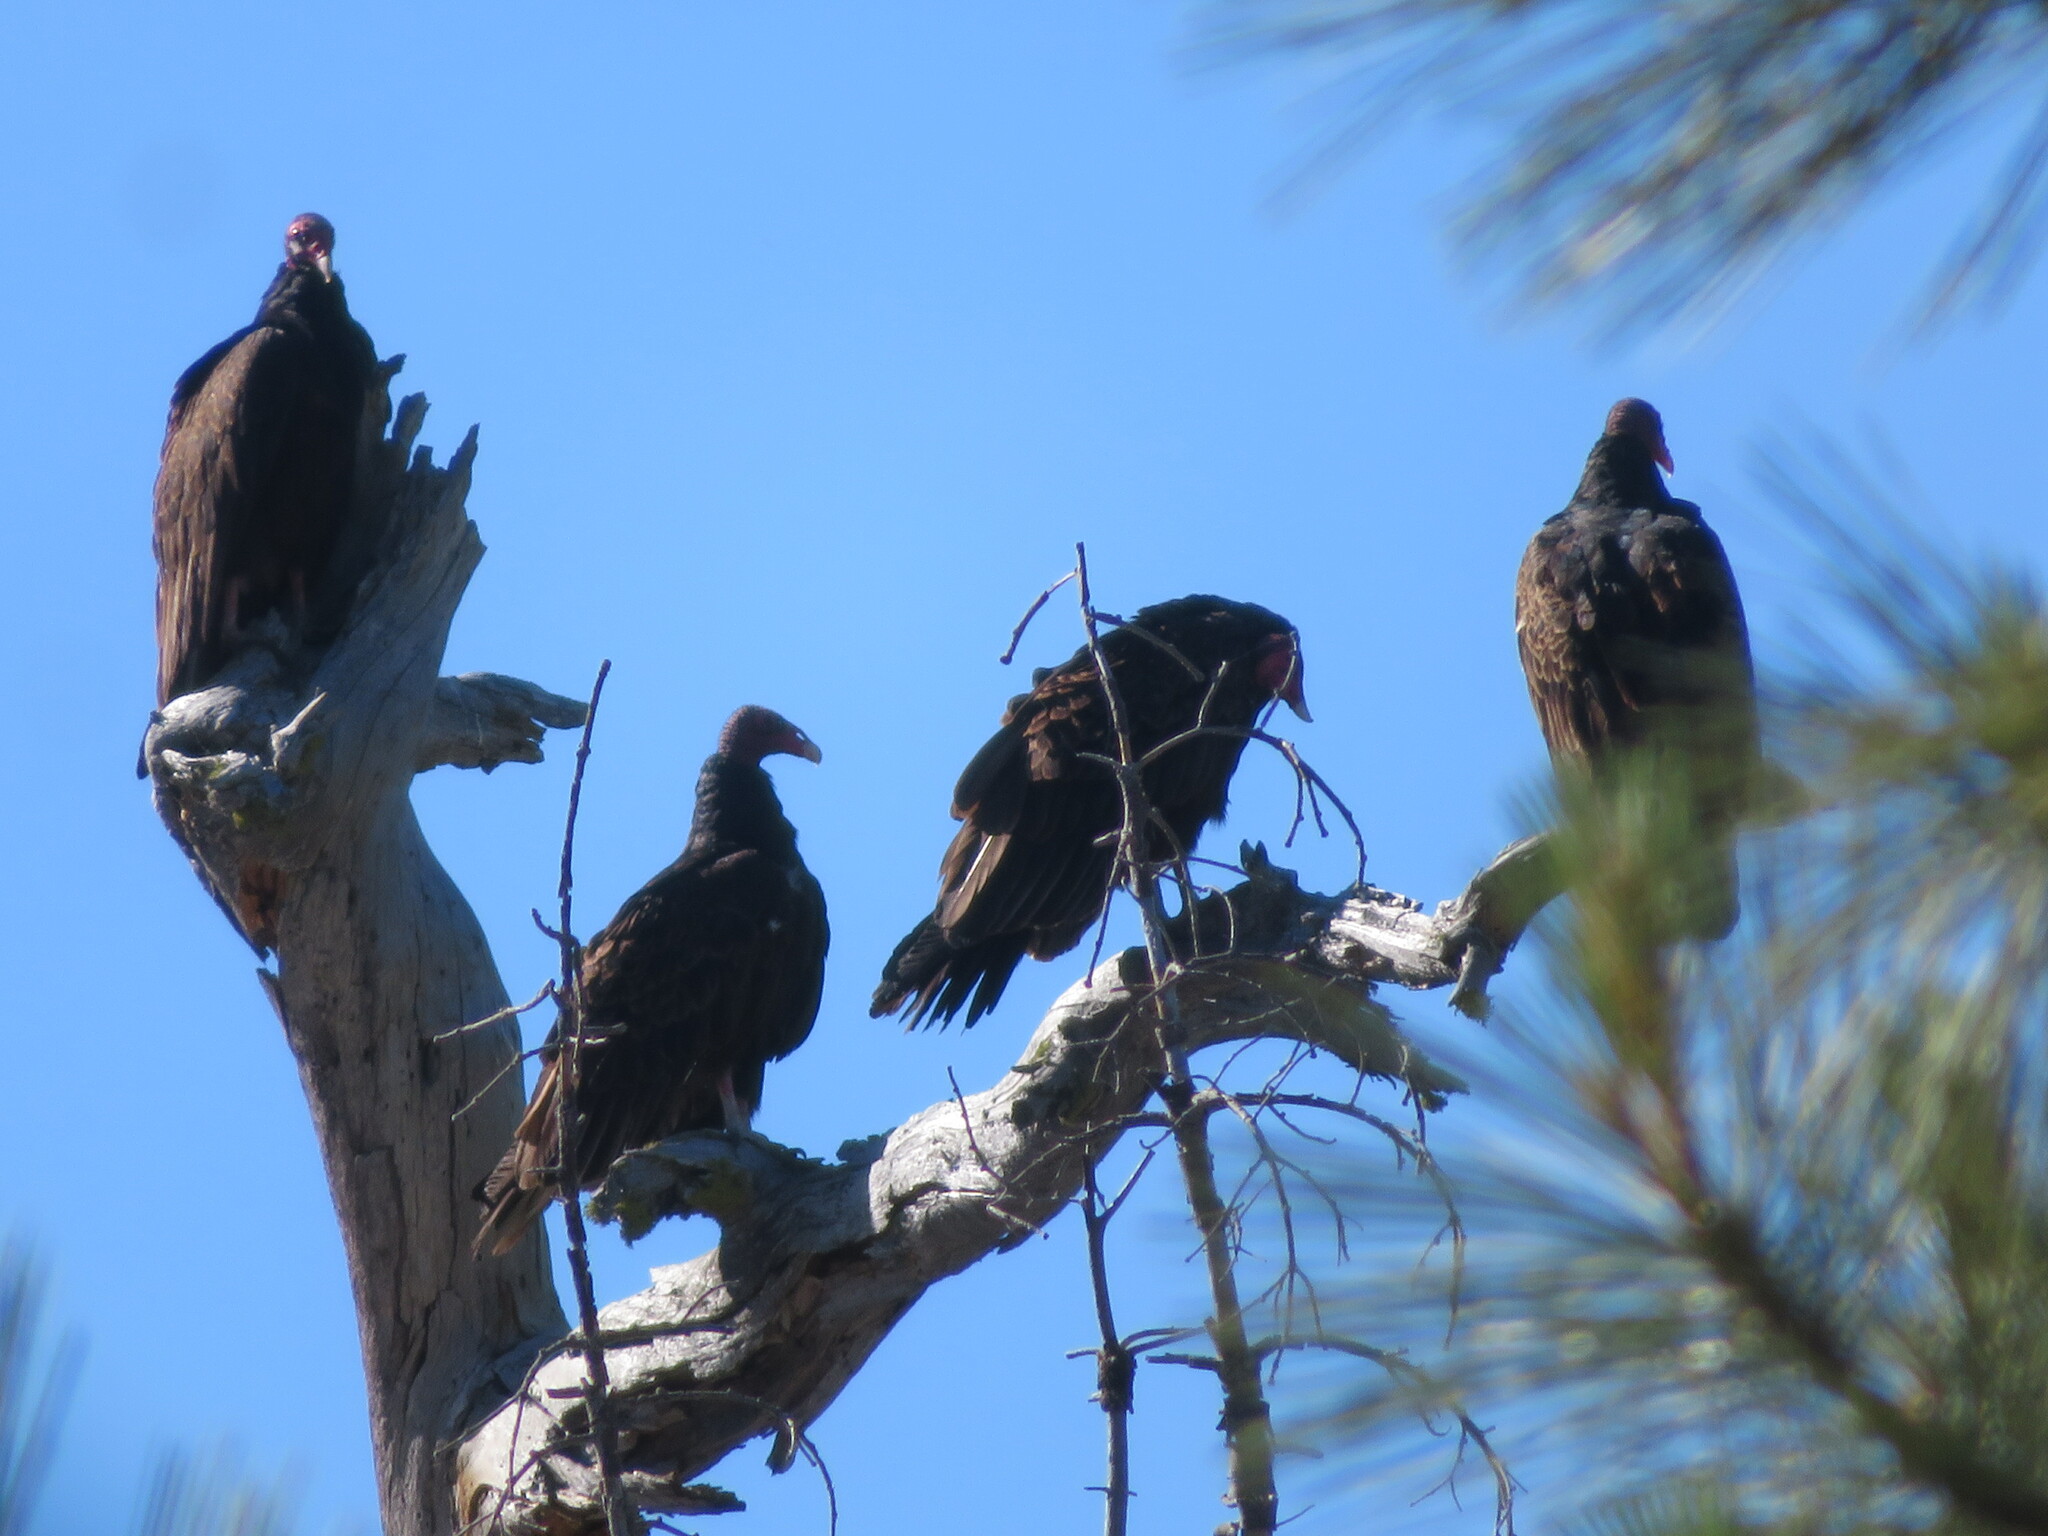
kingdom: Animalia
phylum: Chordata
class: Aves
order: Accipitriformes
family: Cathartidae
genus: Cathartes
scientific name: Cathartes aura
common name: Turkey vulture
